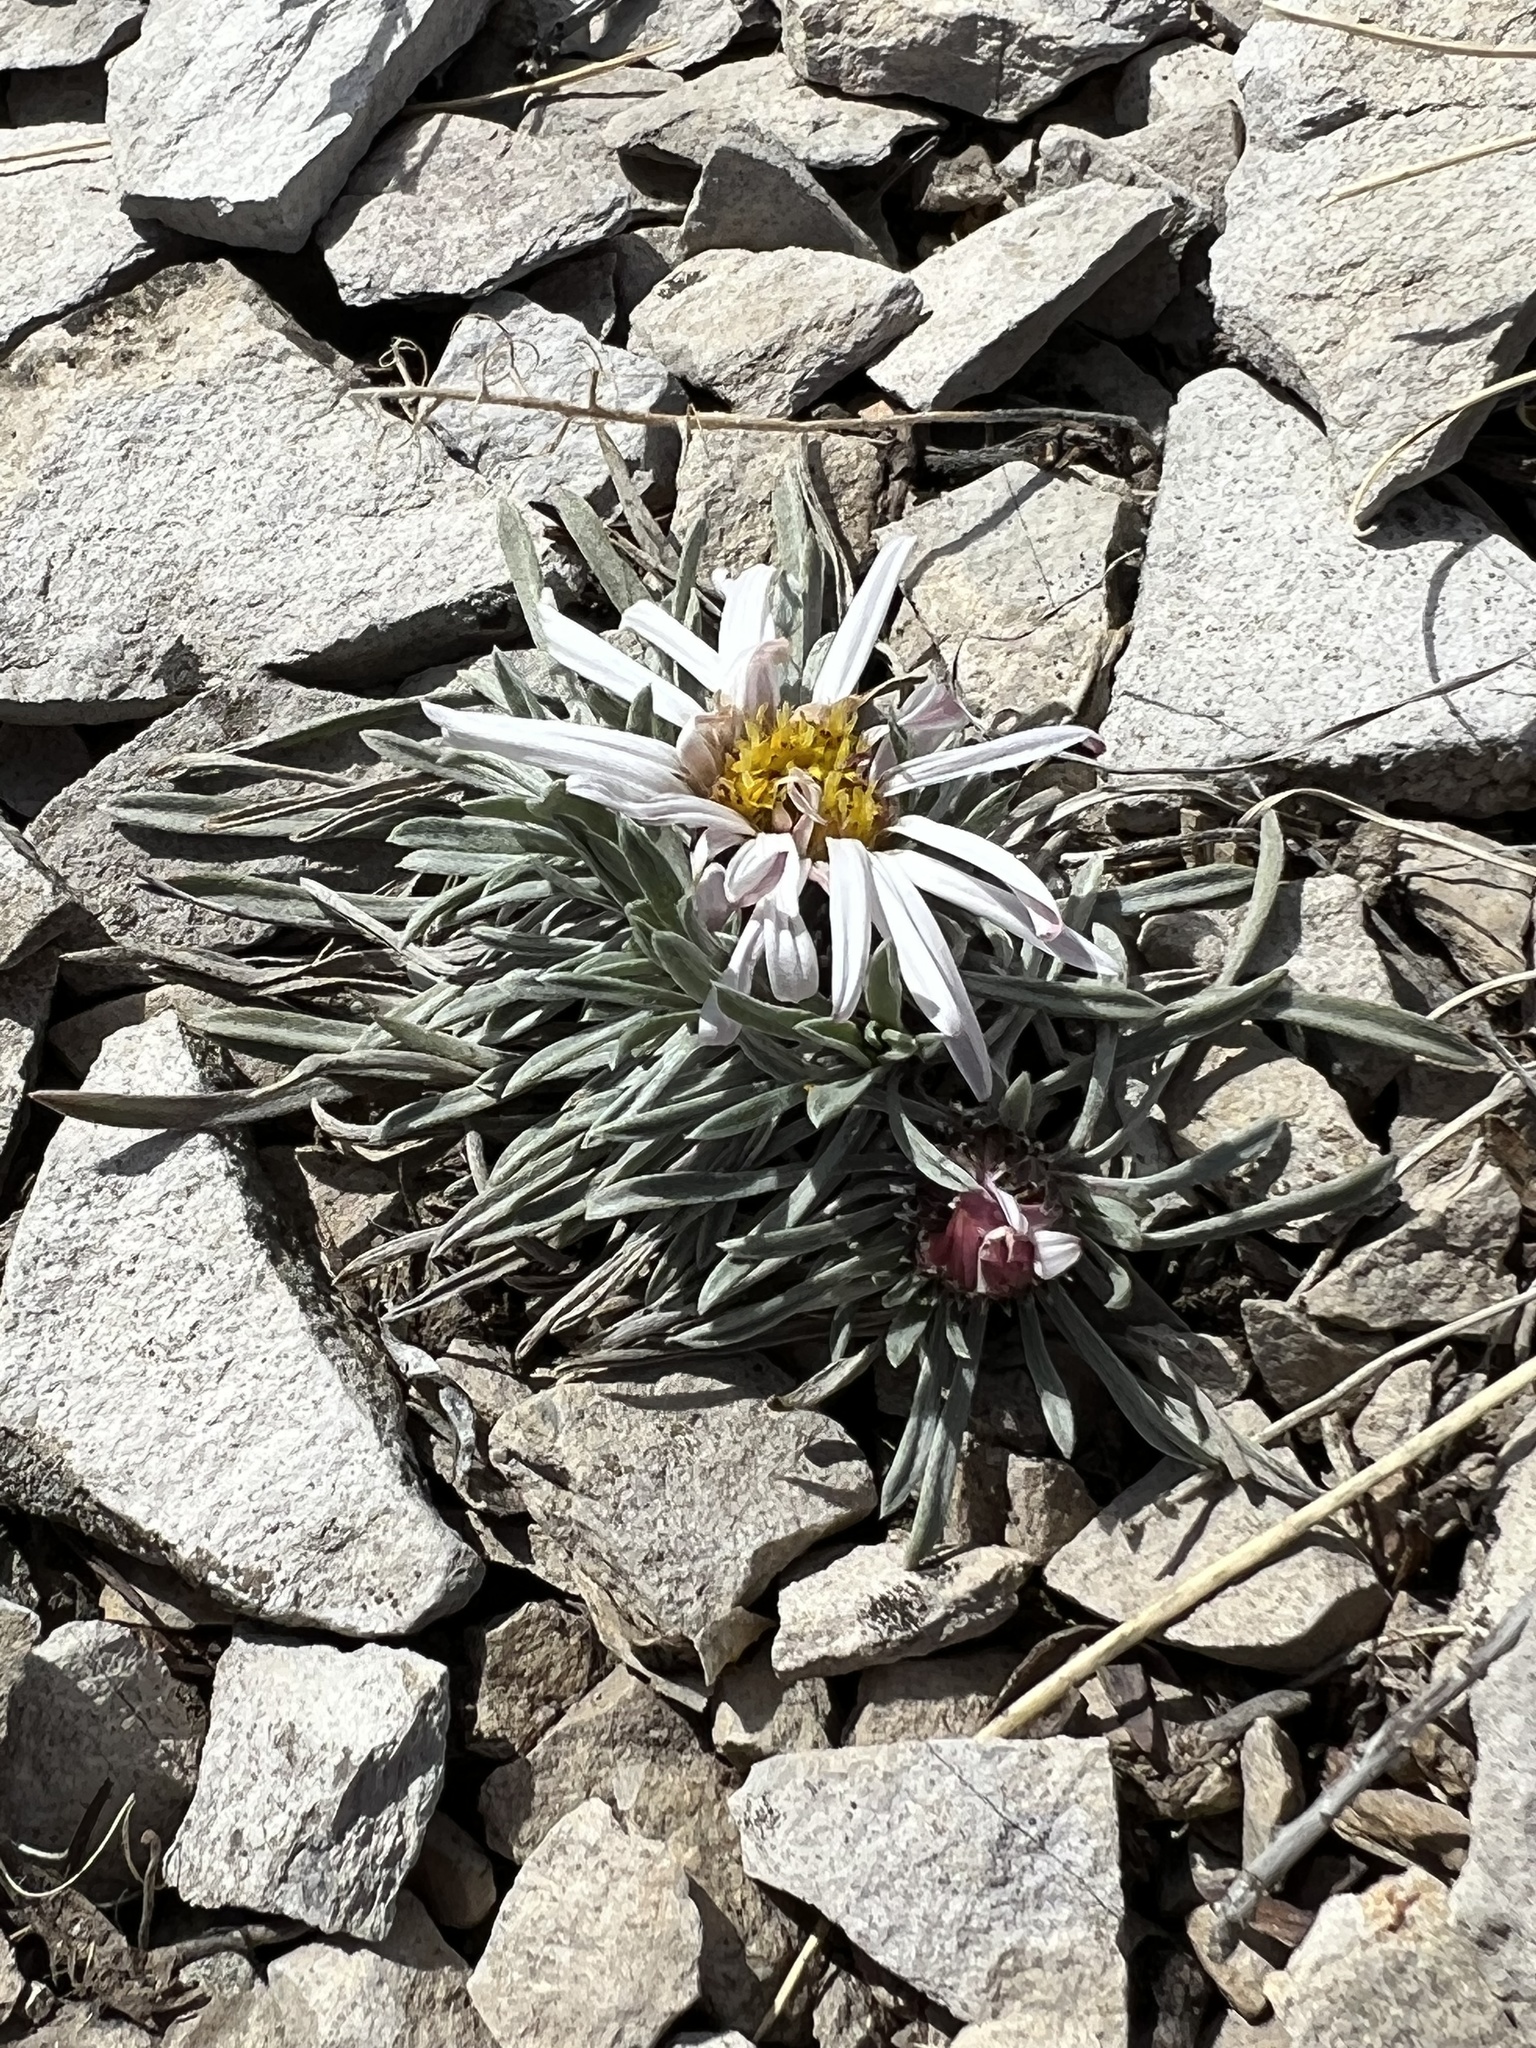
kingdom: Plantae
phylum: Tracheophyta
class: Magnoliopsida
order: Asterales
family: Asteraceae
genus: Townsendia
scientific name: Townsendia hookeri
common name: Hooker's townsend daisy
